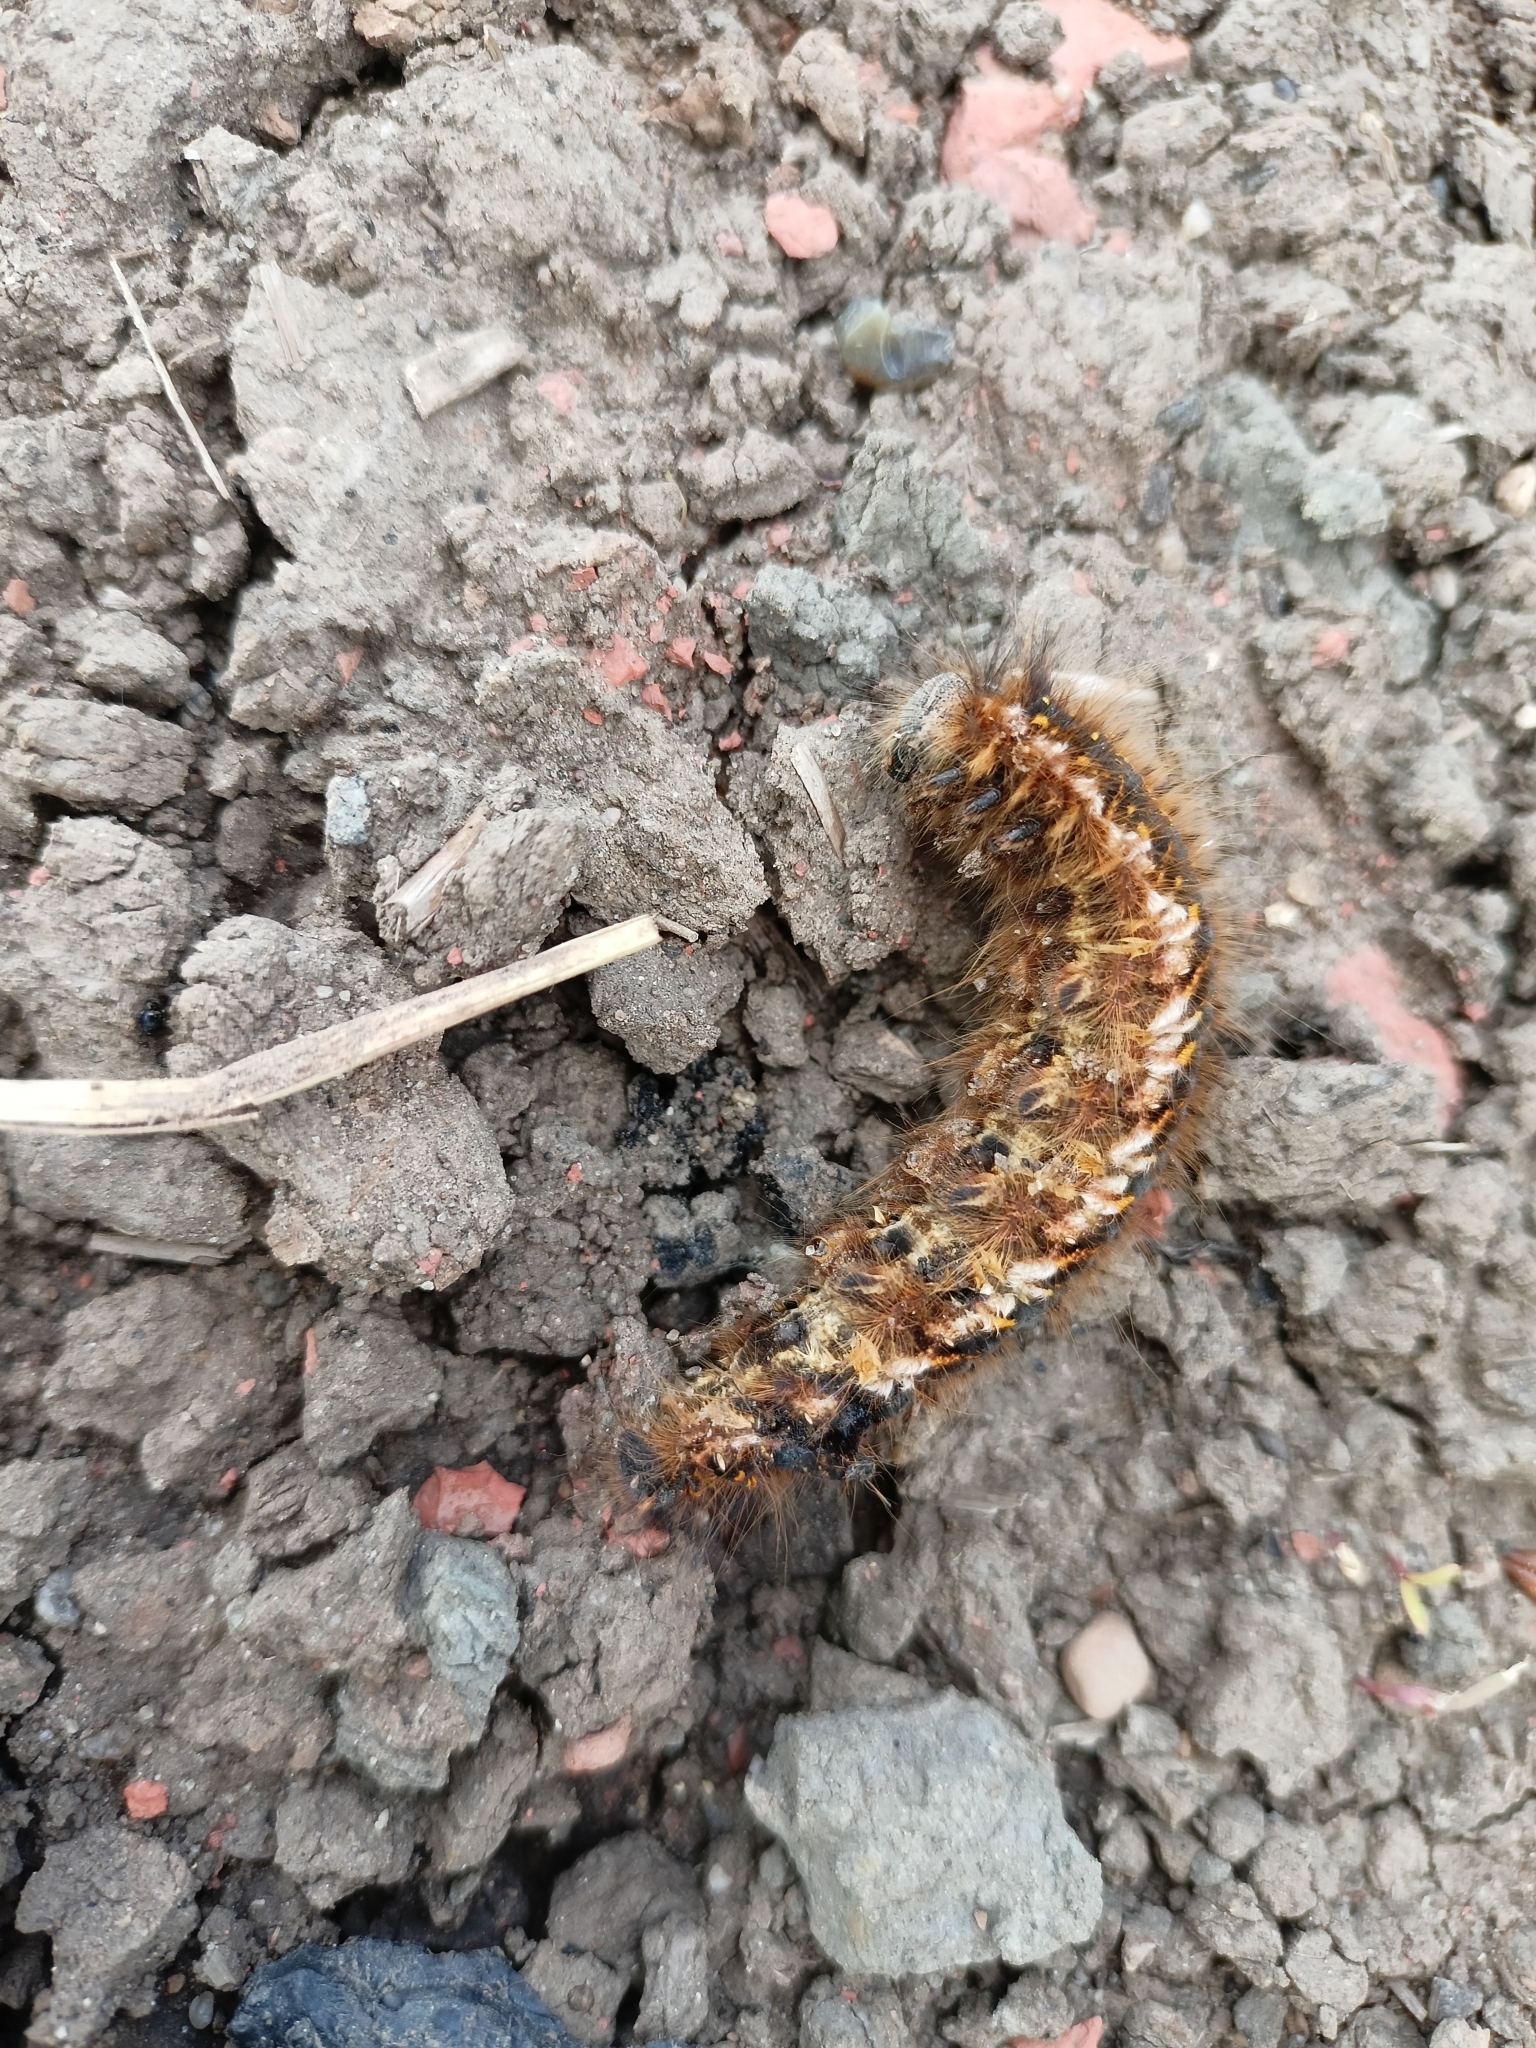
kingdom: Animalia
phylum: Arthropoda
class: Insecta
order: Lepidoptera
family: Lasiocampidae
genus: Euthrix
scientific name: Euthrix potatoria
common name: Drinker
